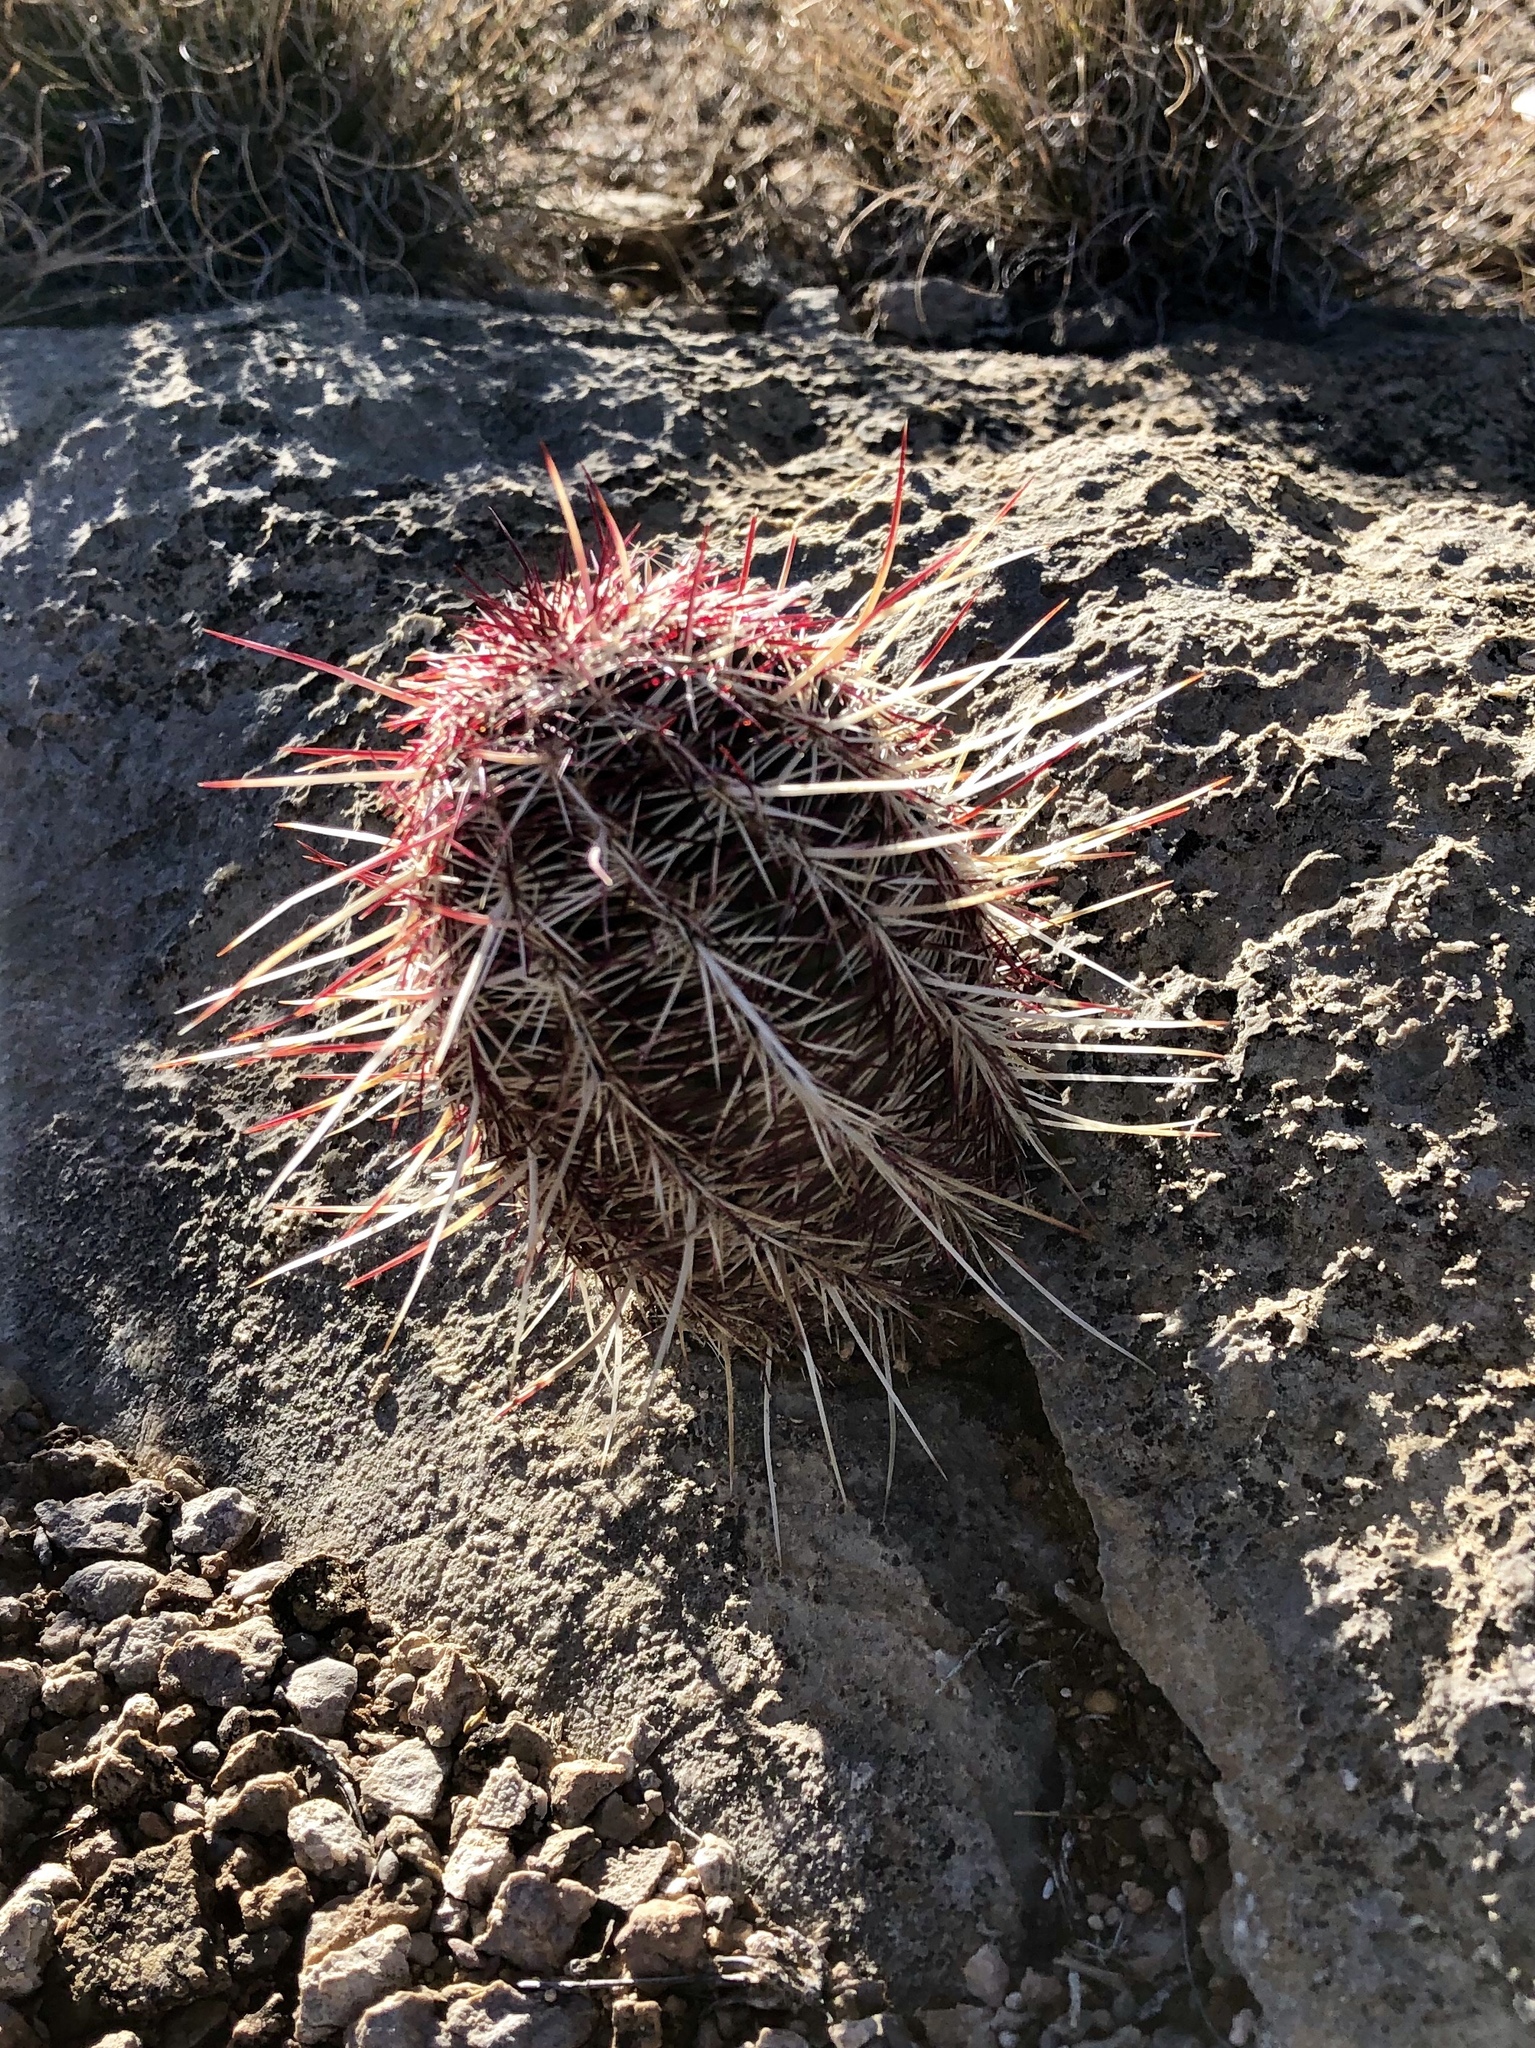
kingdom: Plantae
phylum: Tracheophyta
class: Magnoliopsida
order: Caryophyllales
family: Cactaceae
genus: Echinocereus
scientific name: Echinocereus viridiflorus
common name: Nylon hedgehog cactus
